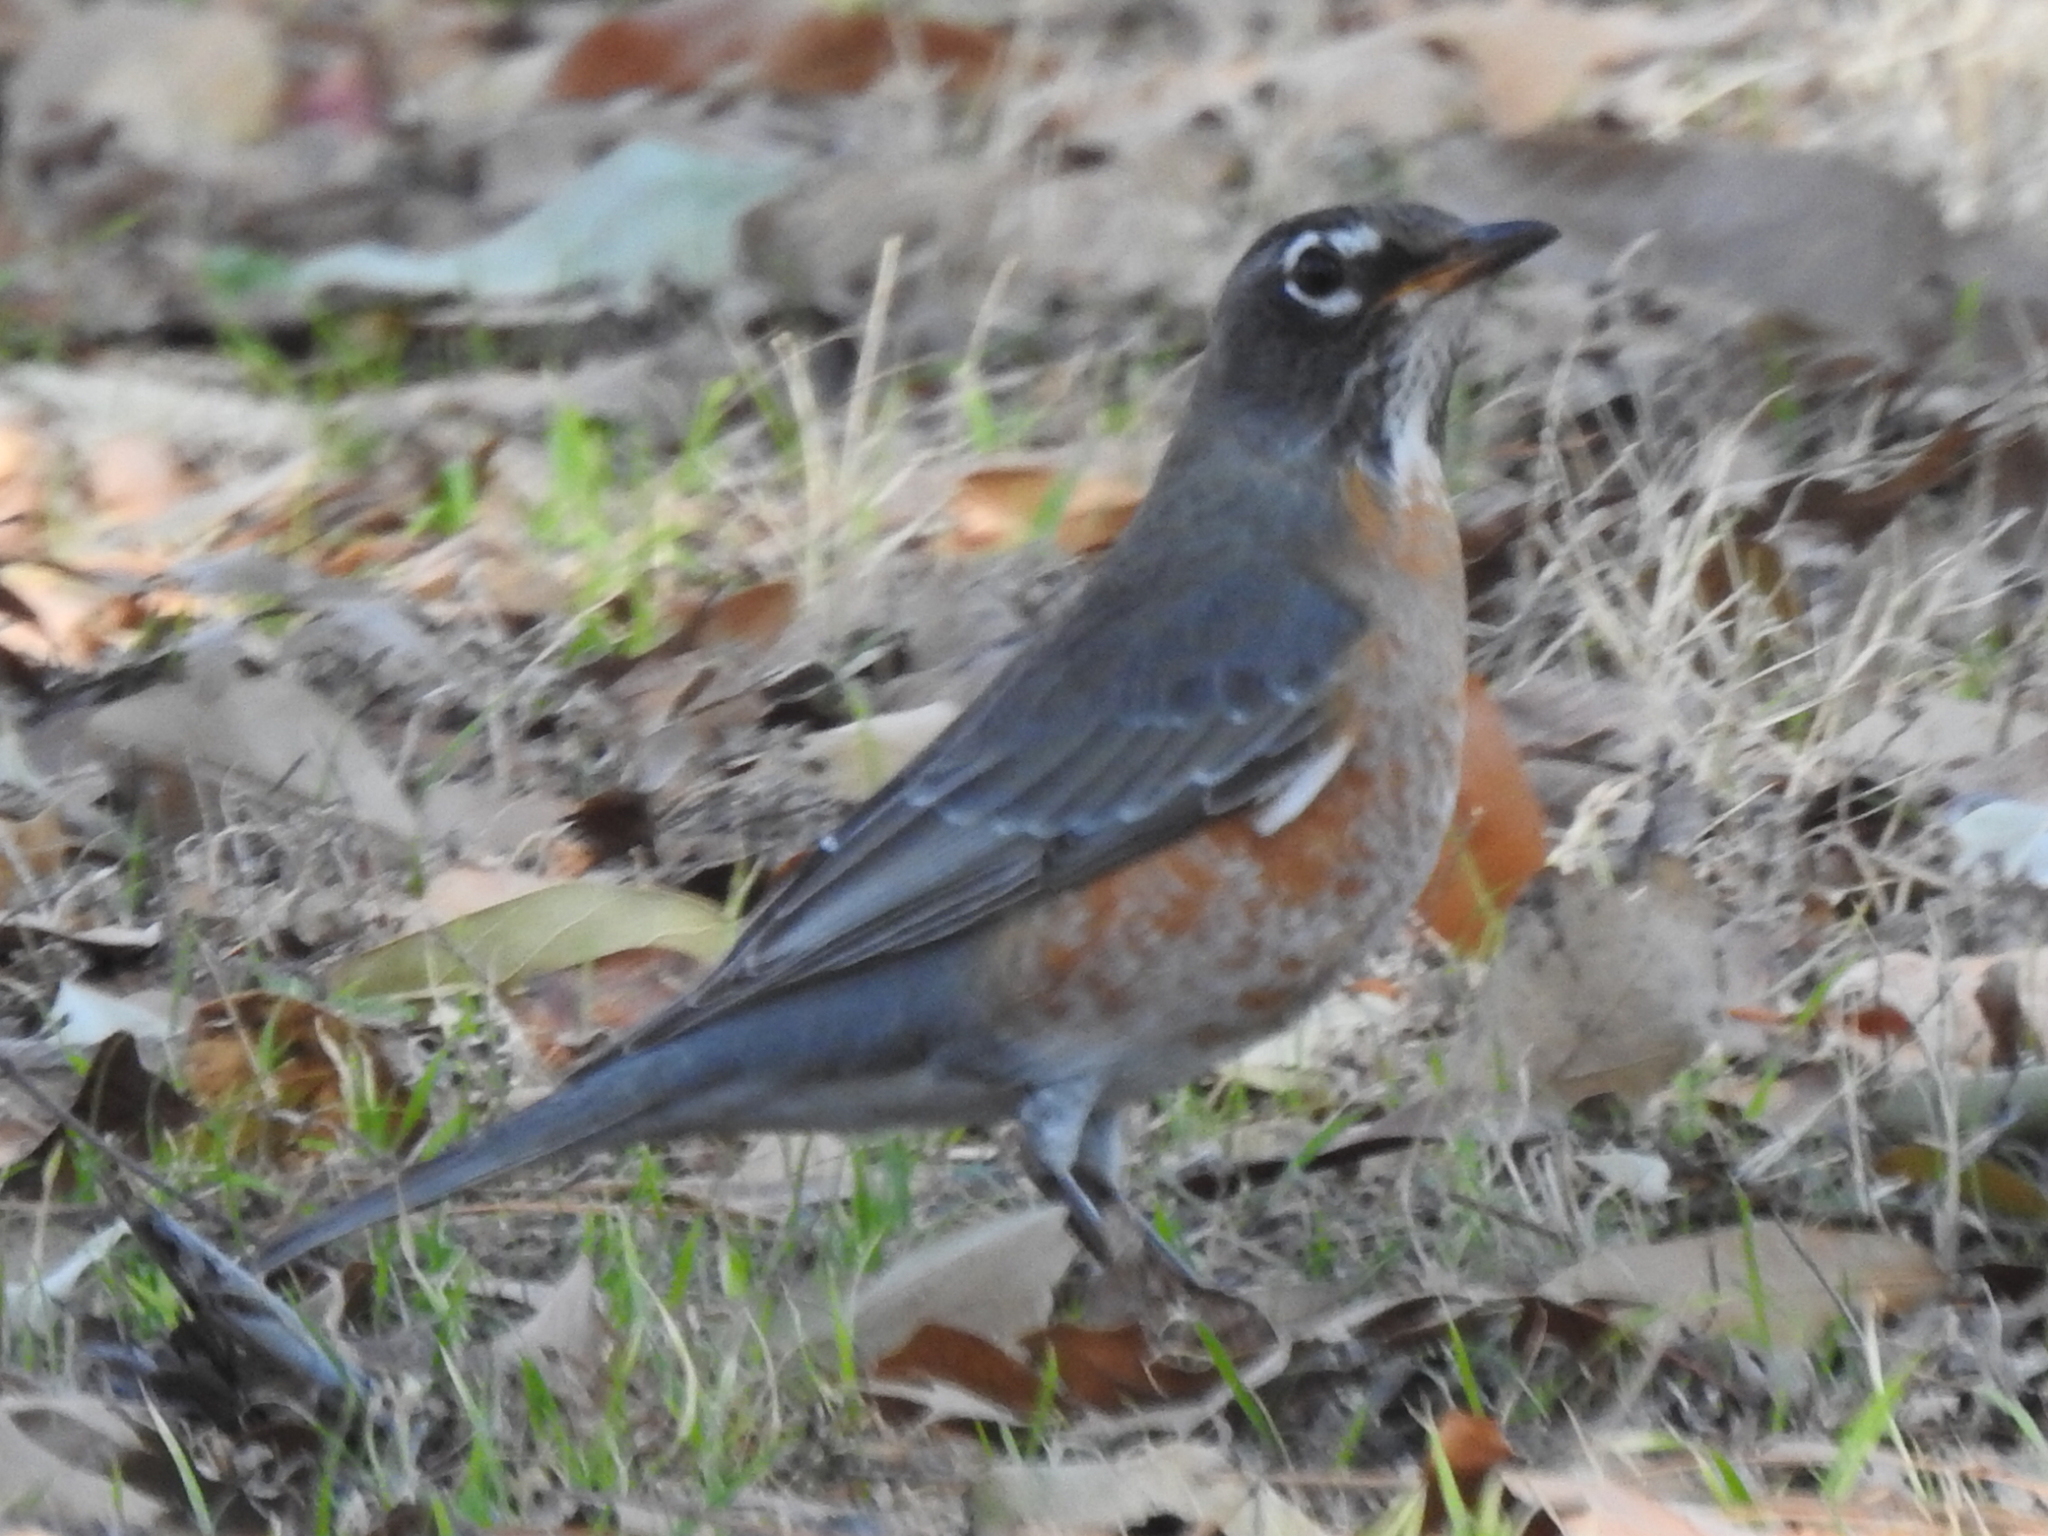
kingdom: Animalia
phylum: Chordata
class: Aves
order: Passeriformes
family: Turdidae
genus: Turdus
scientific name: Turdus migratorius
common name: American robin
